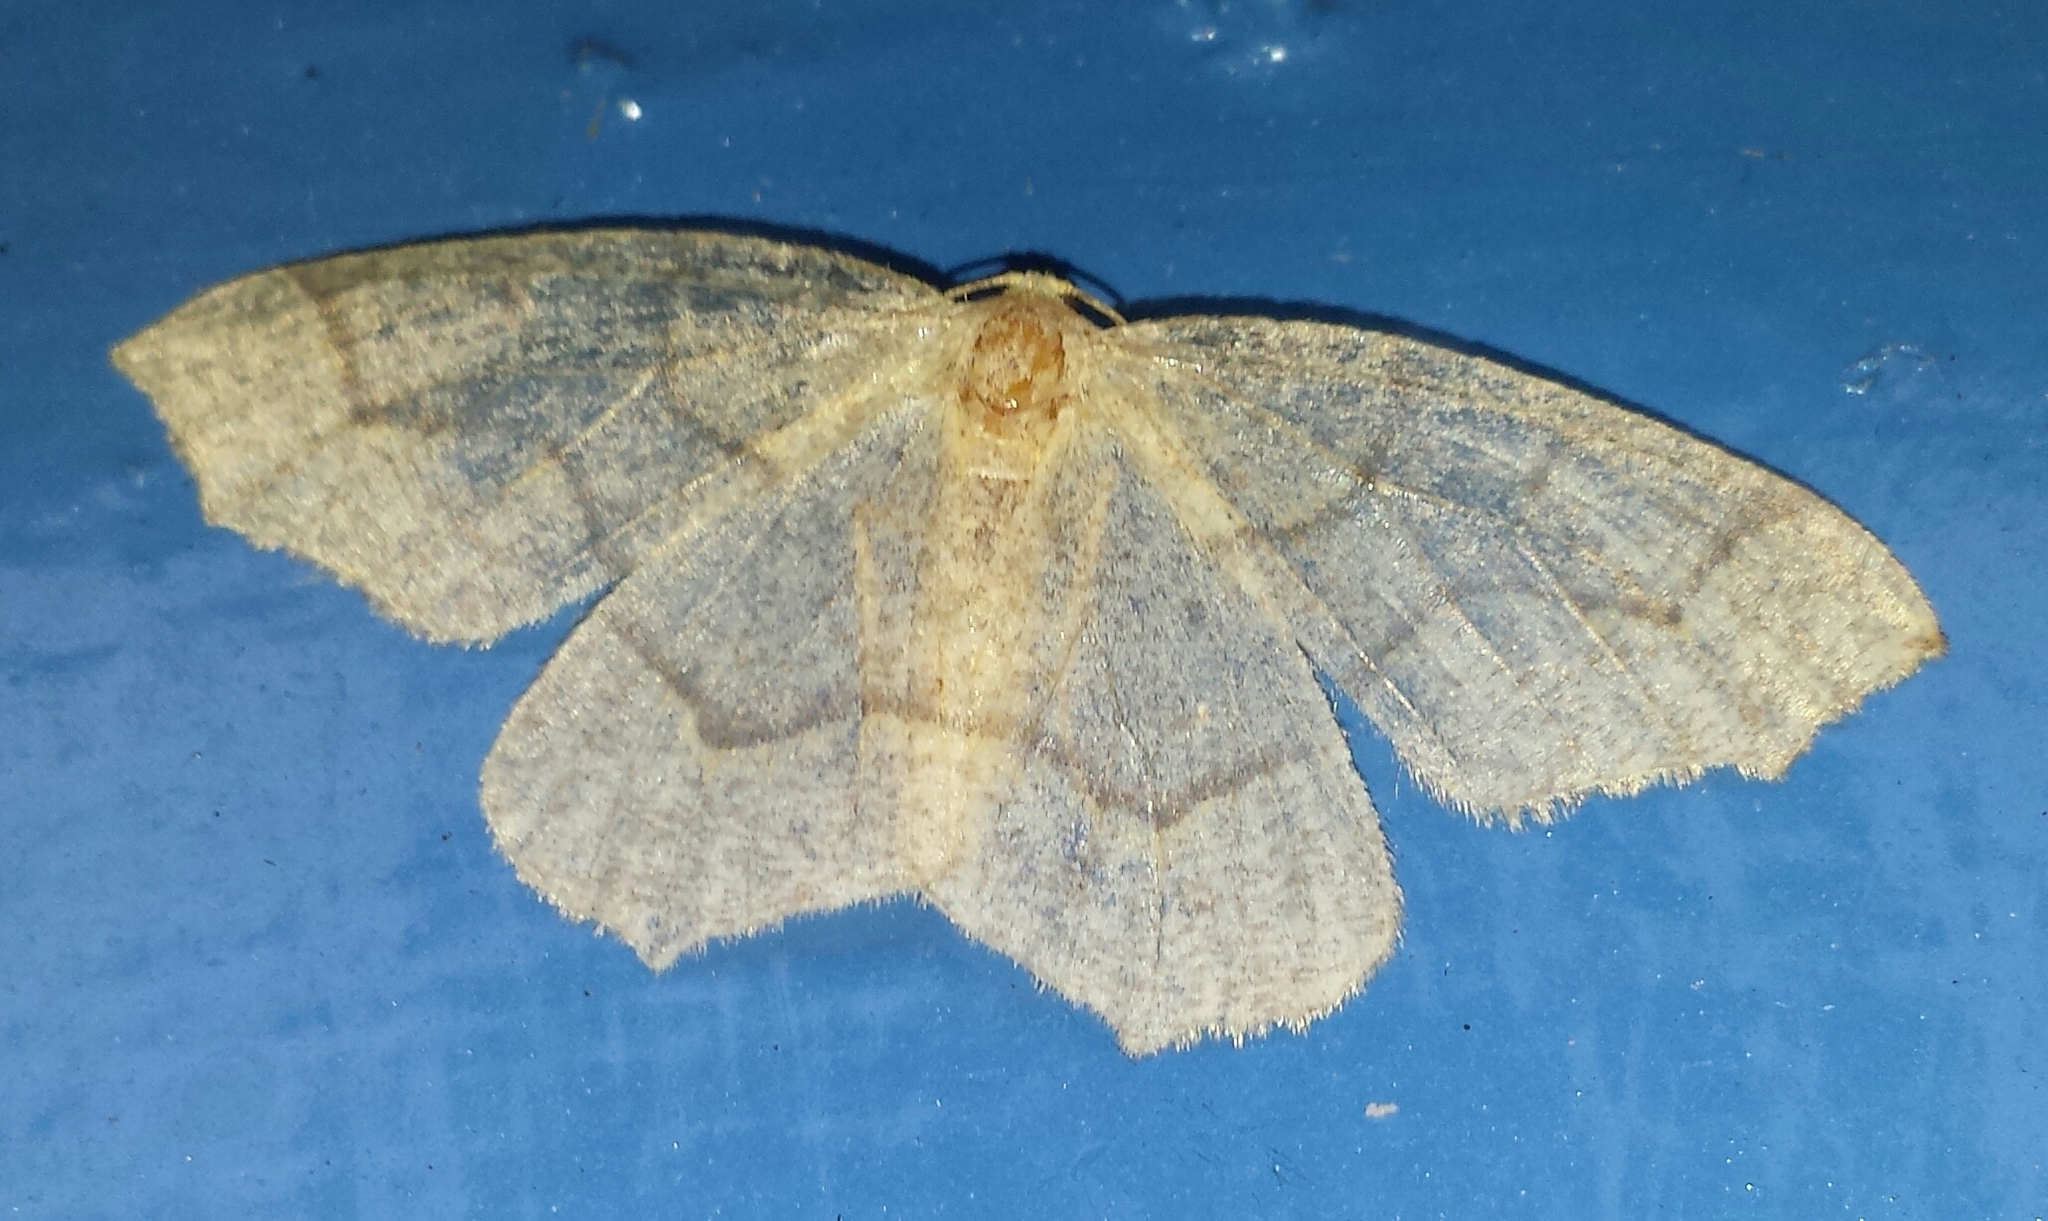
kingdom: Animalia
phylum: Arthropoda
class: Insecta
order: Lepidoptera
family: Geometridae
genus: Lambdina
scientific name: Lambdina fiscellaria
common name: Hemlock looper
